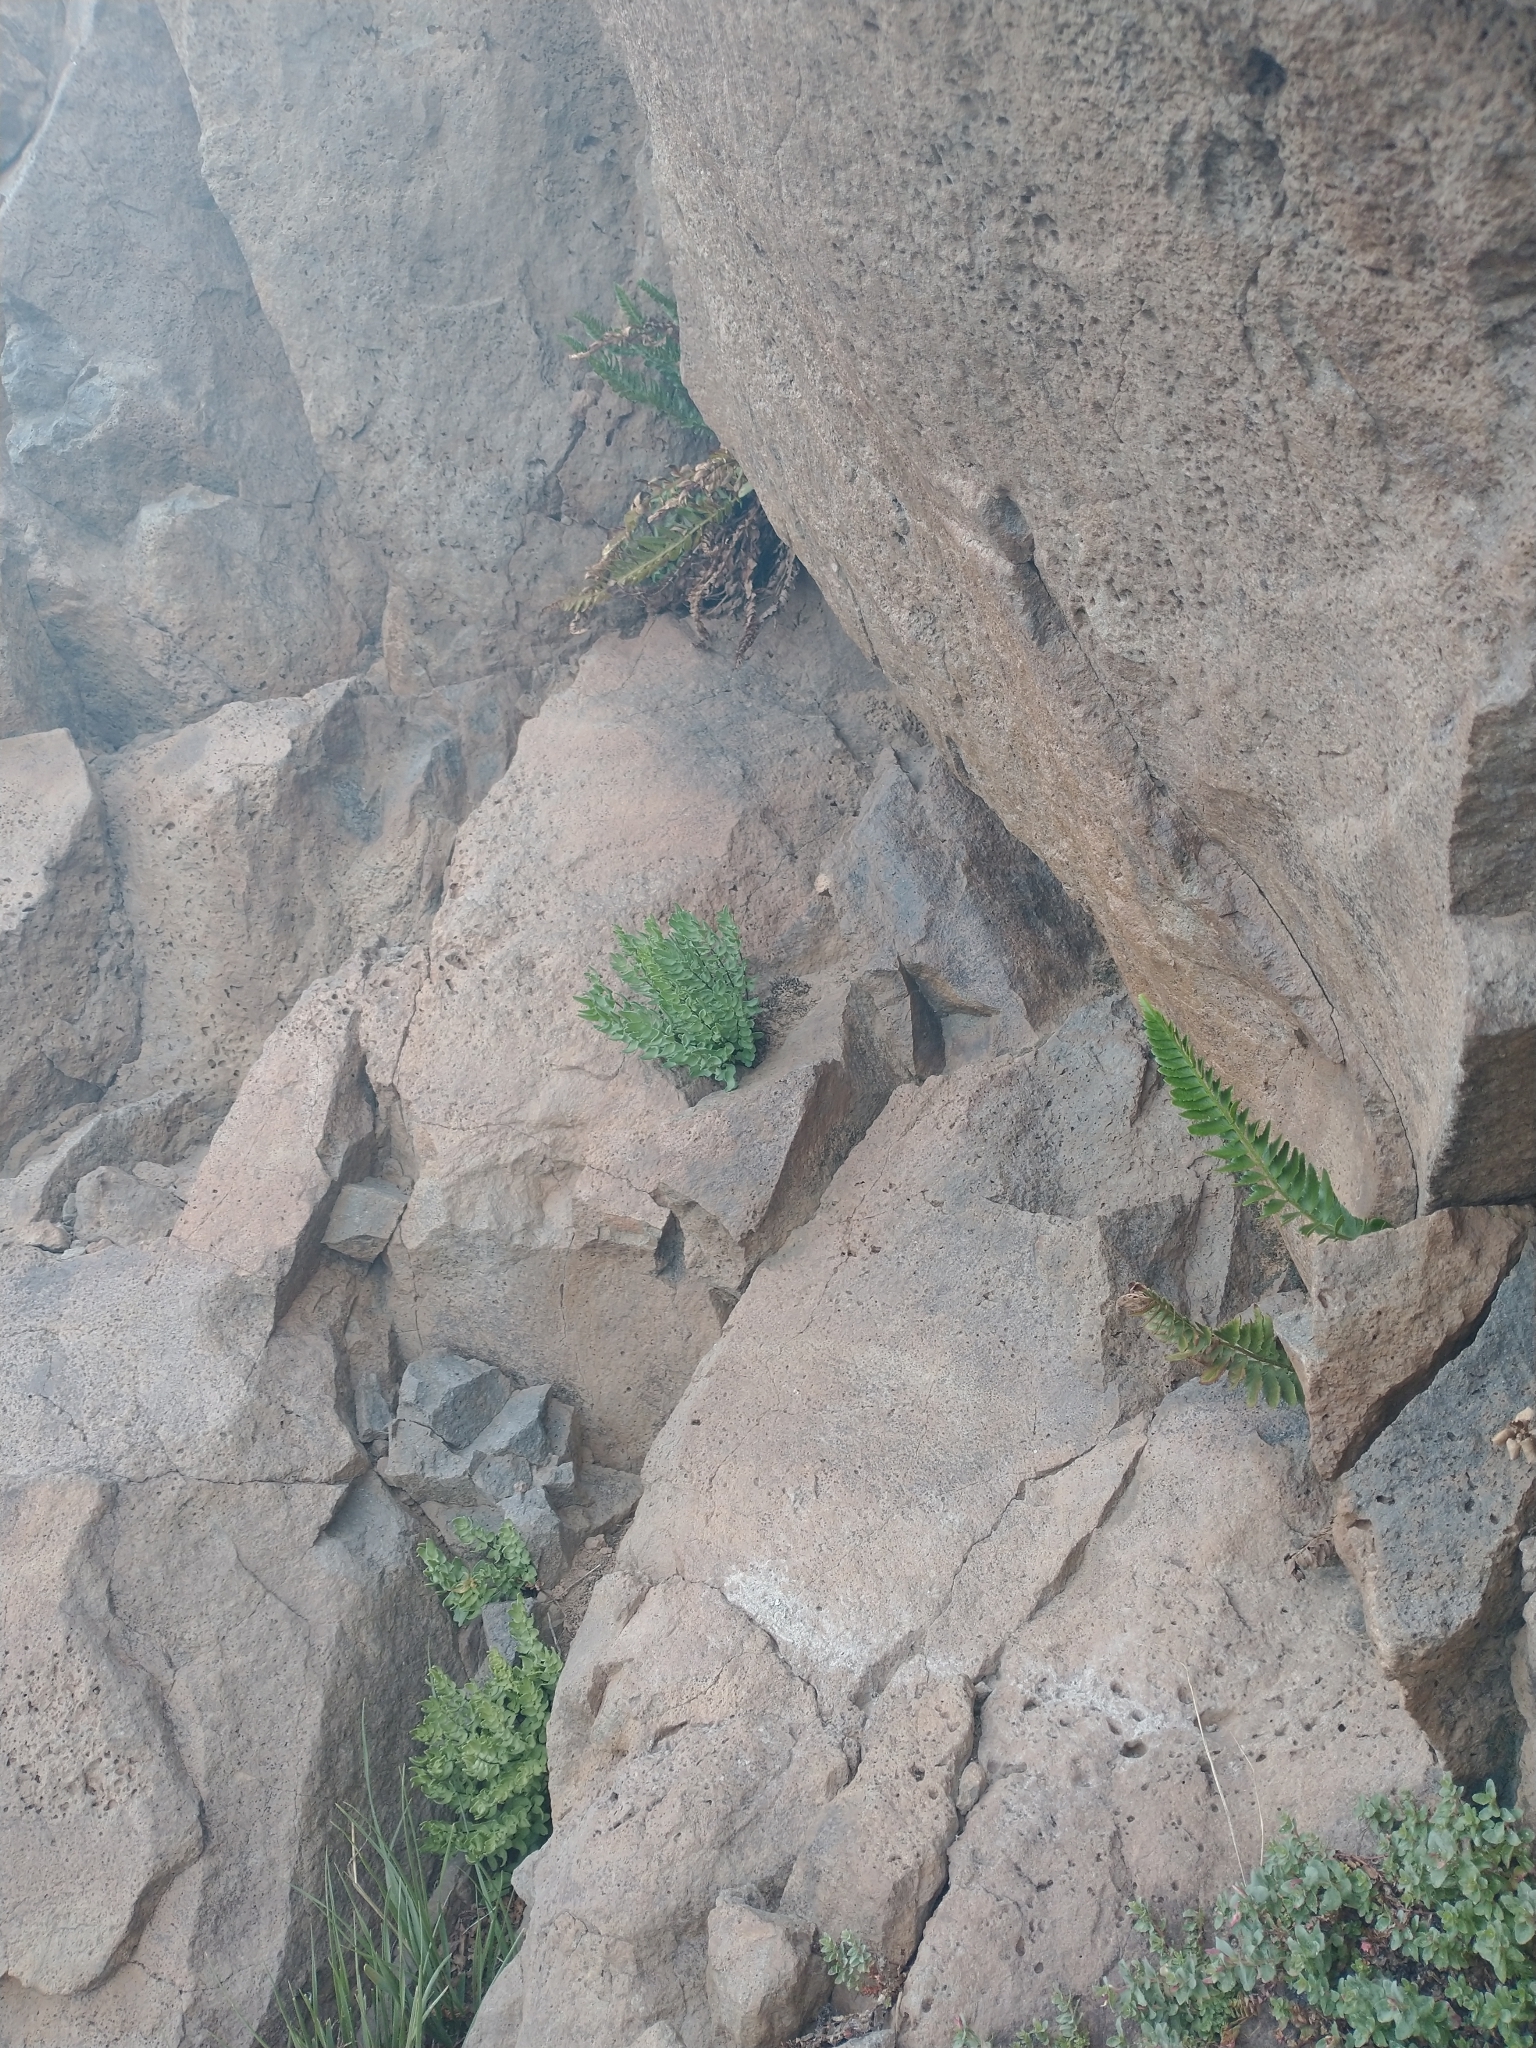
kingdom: Plantae
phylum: Tracheophyta
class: Polypodiopsida
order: Polypodiales
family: Pteridaceae
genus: Pellaea
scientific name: Pellaea breweri
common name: Brewer's cliffbrake
